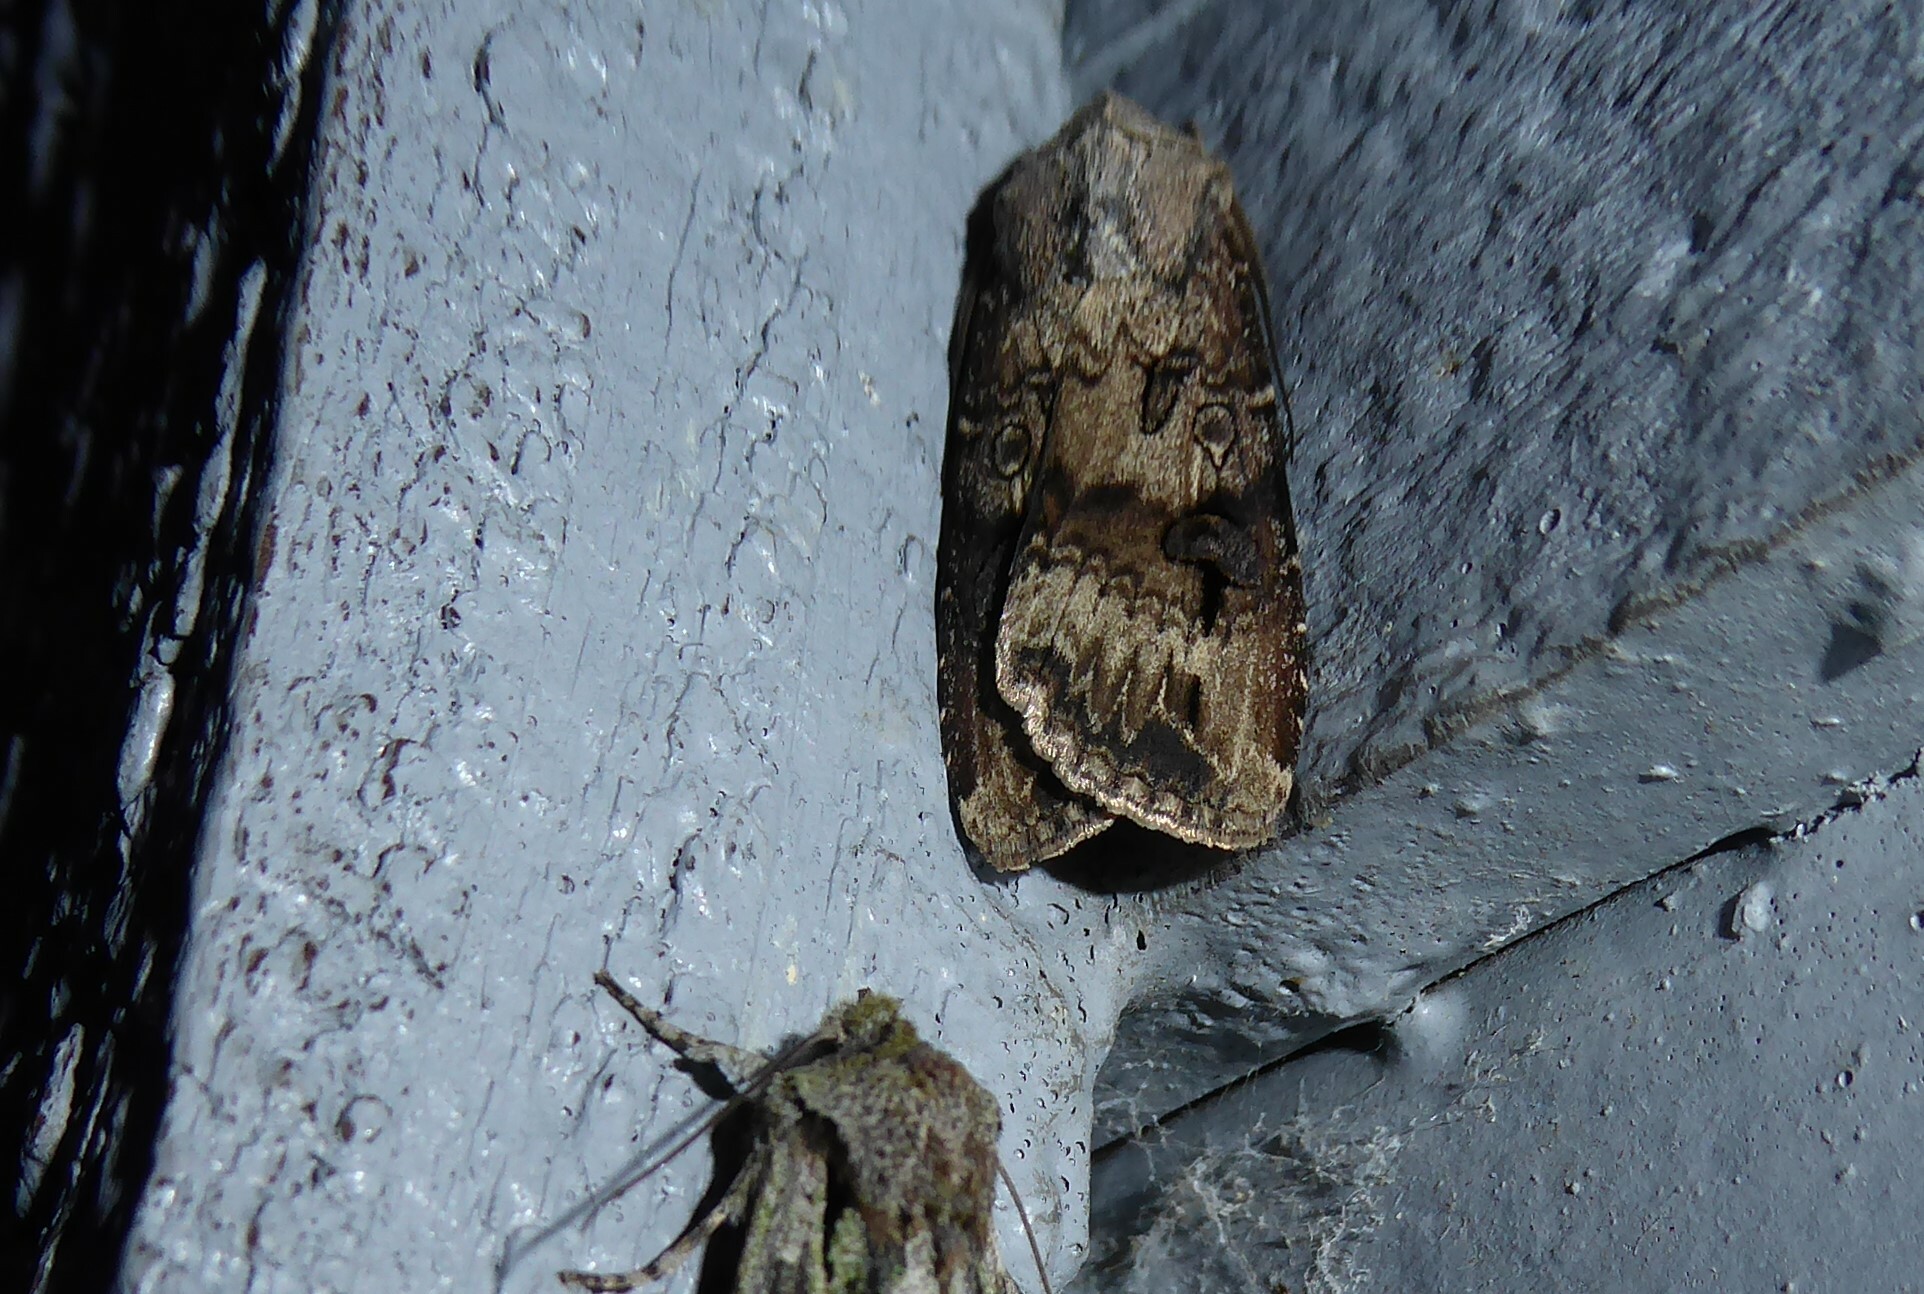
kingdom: Animalia
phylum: Arthropoda
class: Insecta
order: Lepidoptera
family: Noctuidae
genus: Agrotis
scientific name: Agrotis ipsilon
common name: Dark sword-grass
